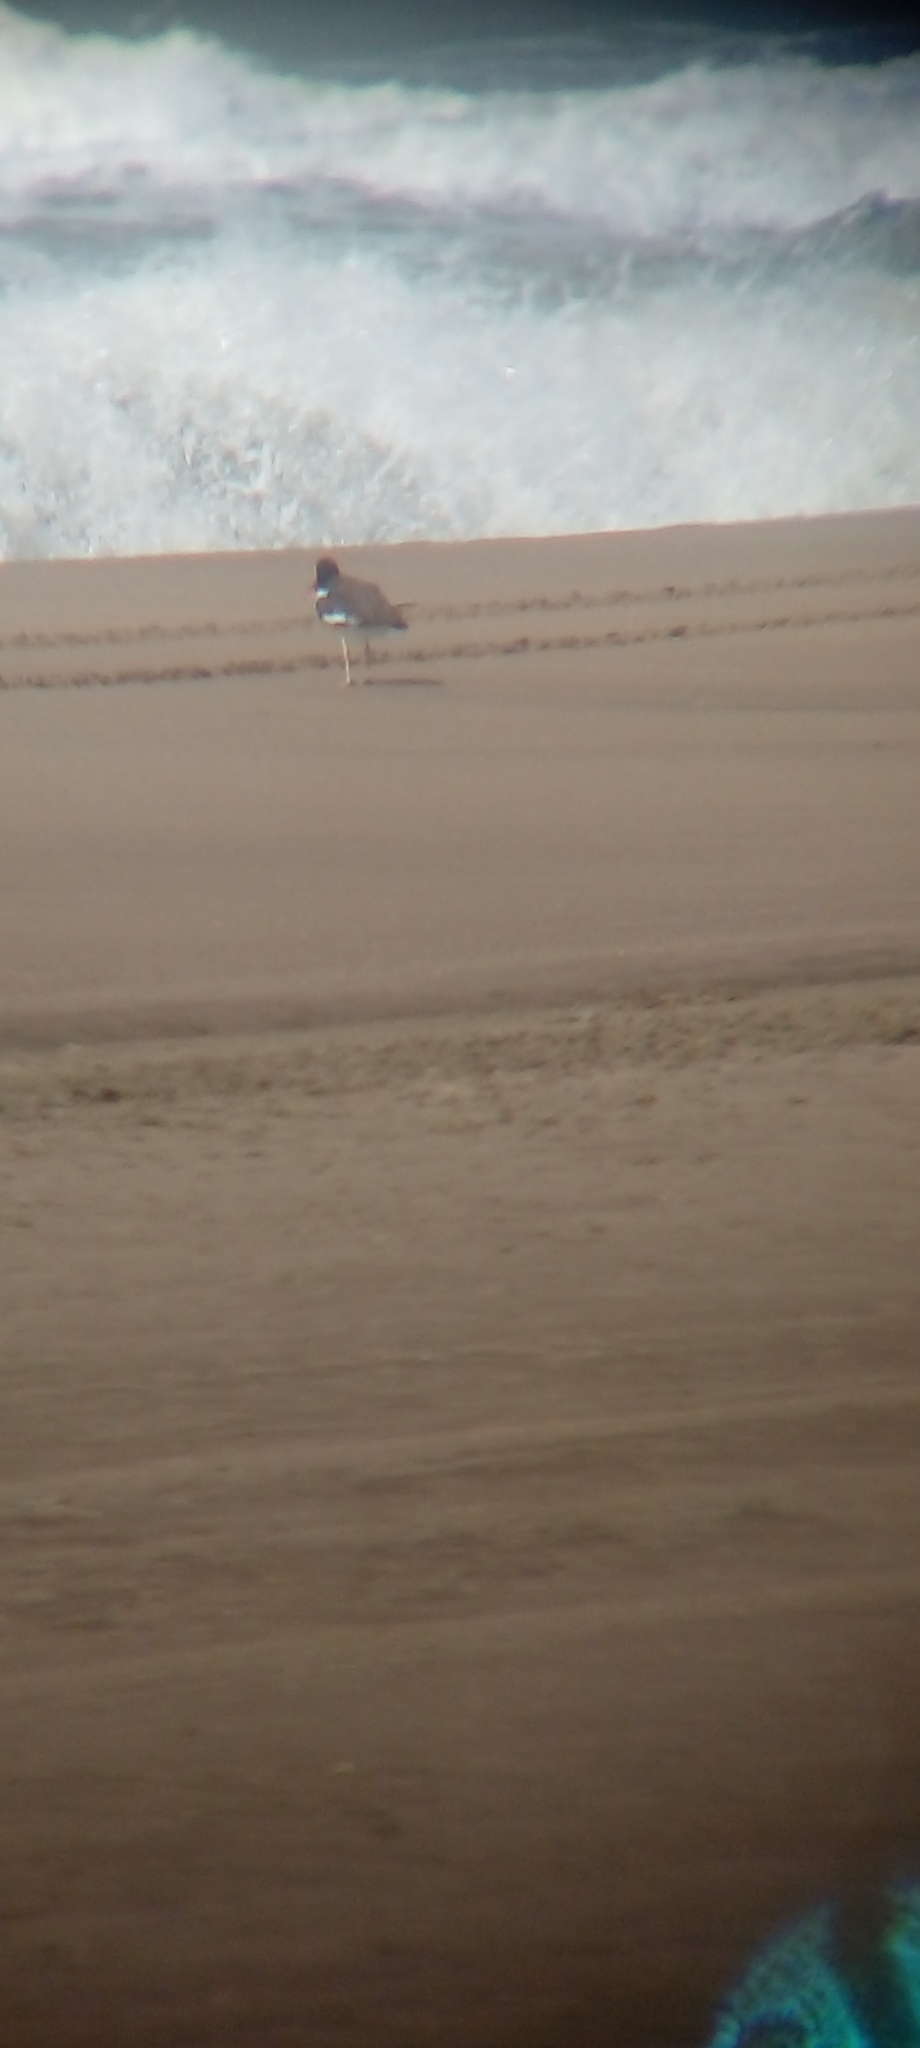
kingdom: Animalia
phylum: Chordata
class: Aves
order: Charadriiformes
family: Haematopodidae
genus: Haematopus
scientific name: Haematopus palliatus
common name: American oystercatcher
